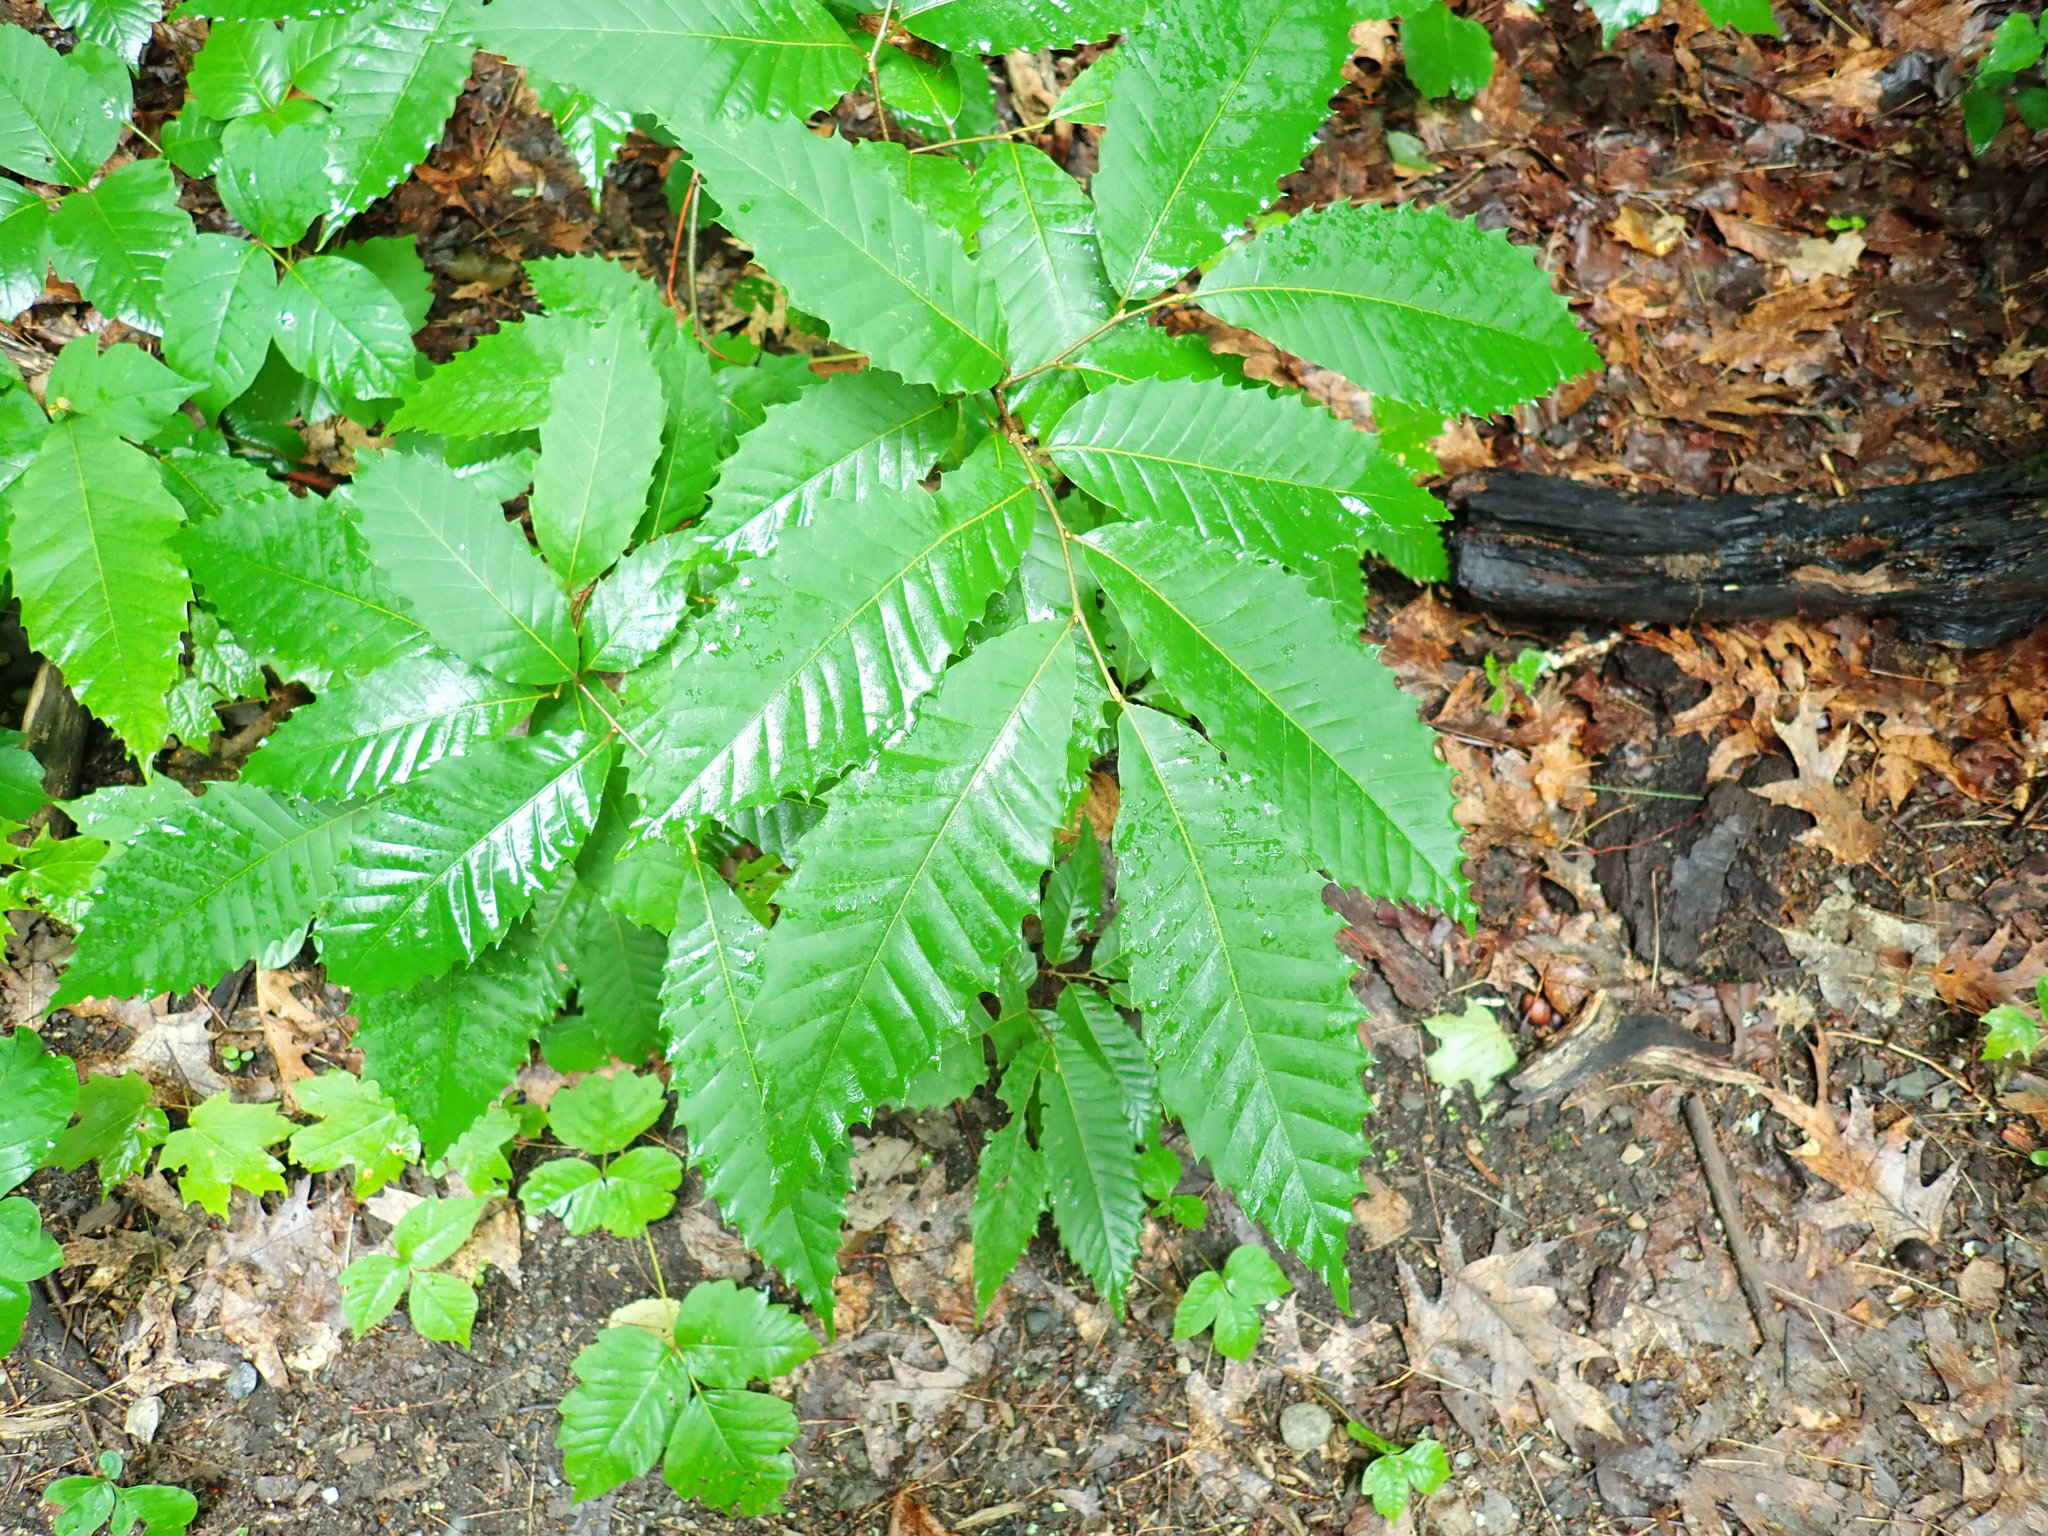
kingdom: Plantae
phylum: Tracheophyta
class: Magnoliopsida
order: Fagales
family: Fagaceae
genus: Castanea
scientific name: Castanea dentata
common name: American chestnut
